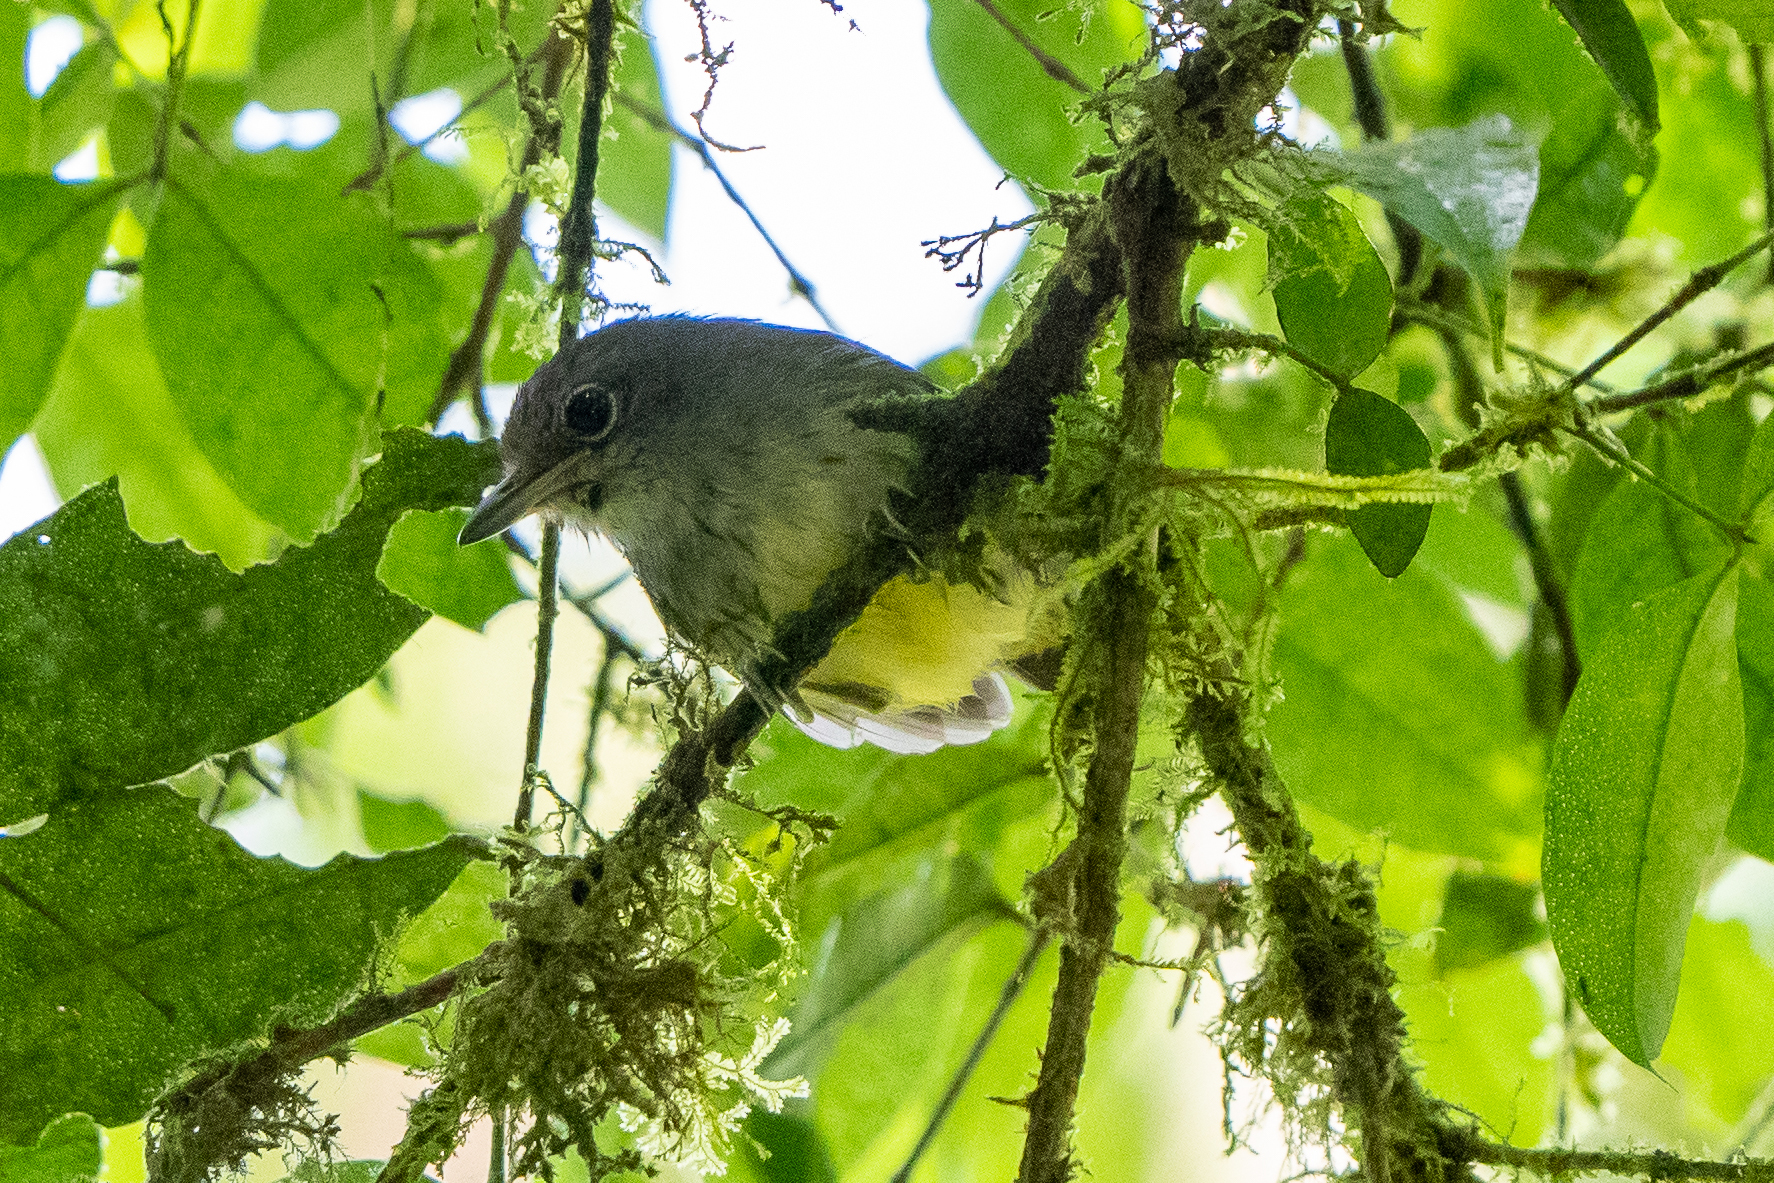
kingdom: Animalia
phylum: Chordata
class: Aves
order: Passeriformes
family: Thamnophilidae
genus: Dysithamnus
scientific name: Dysithamnus mentalis
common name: Plain antvireo
